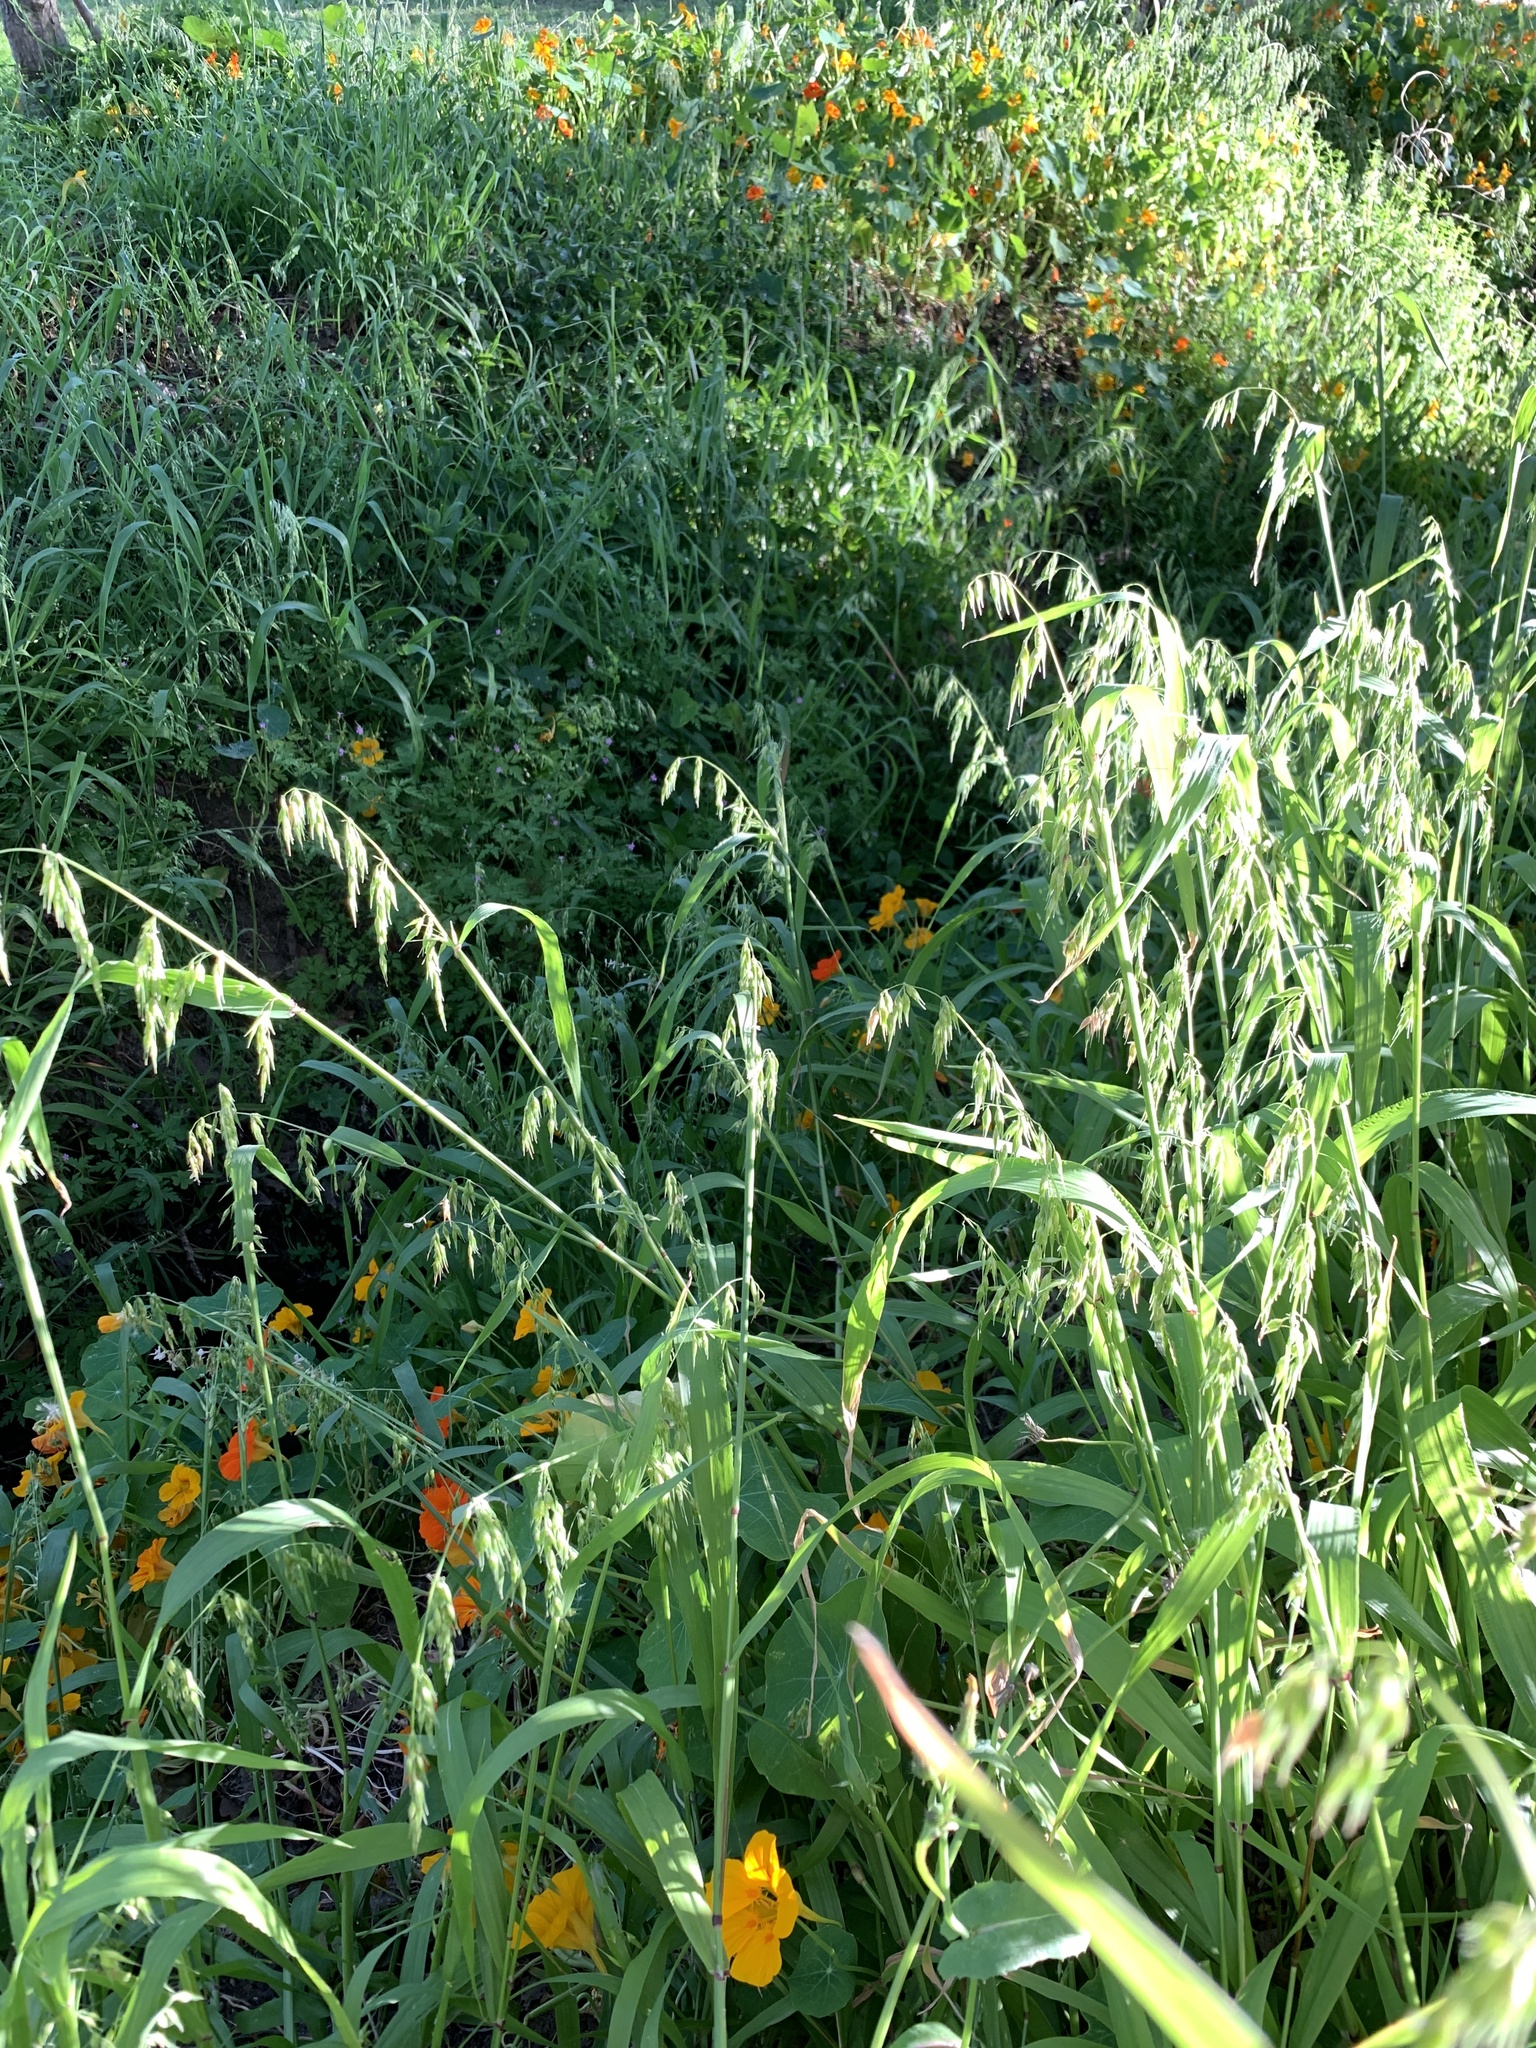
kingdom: Plantae
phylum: Tracheophyta
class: Liliopsida
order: Poales
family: Poaceae
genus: Ehrharta
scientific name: Ehrharta longiflora
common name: Longflowered veldtgrass
